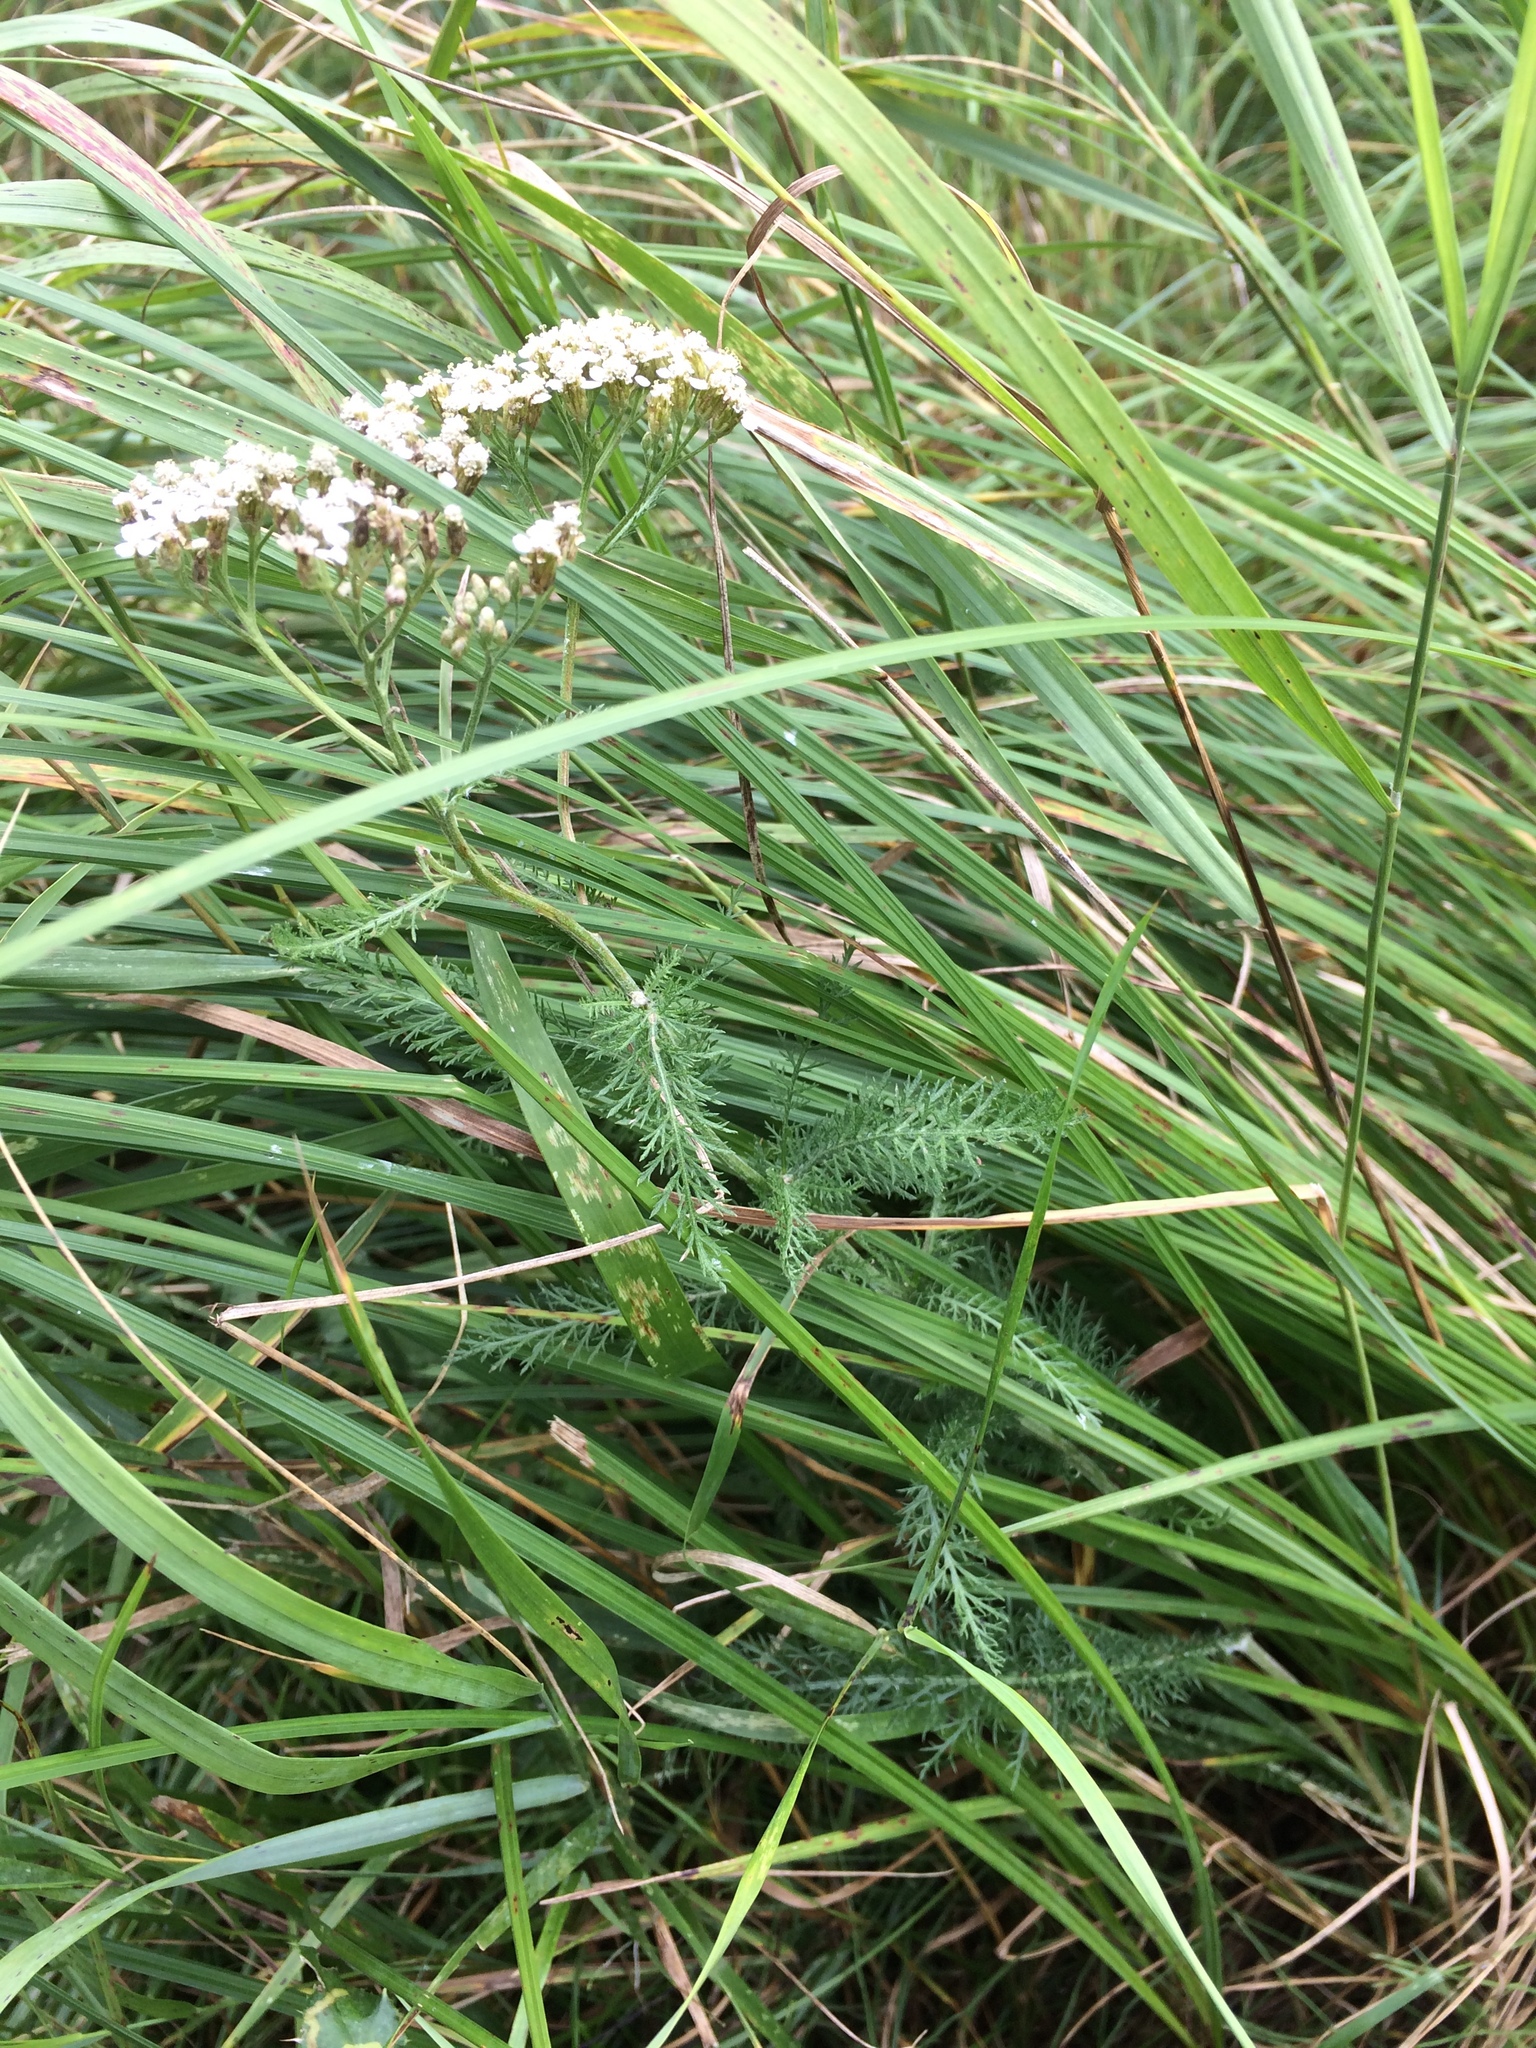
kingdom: Plantae
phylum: Tracheophyta
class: Magnoliopsida
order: Asterales
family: Asteraceae
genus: Achillea
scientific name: Achillea millefolium
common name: Yarrow
